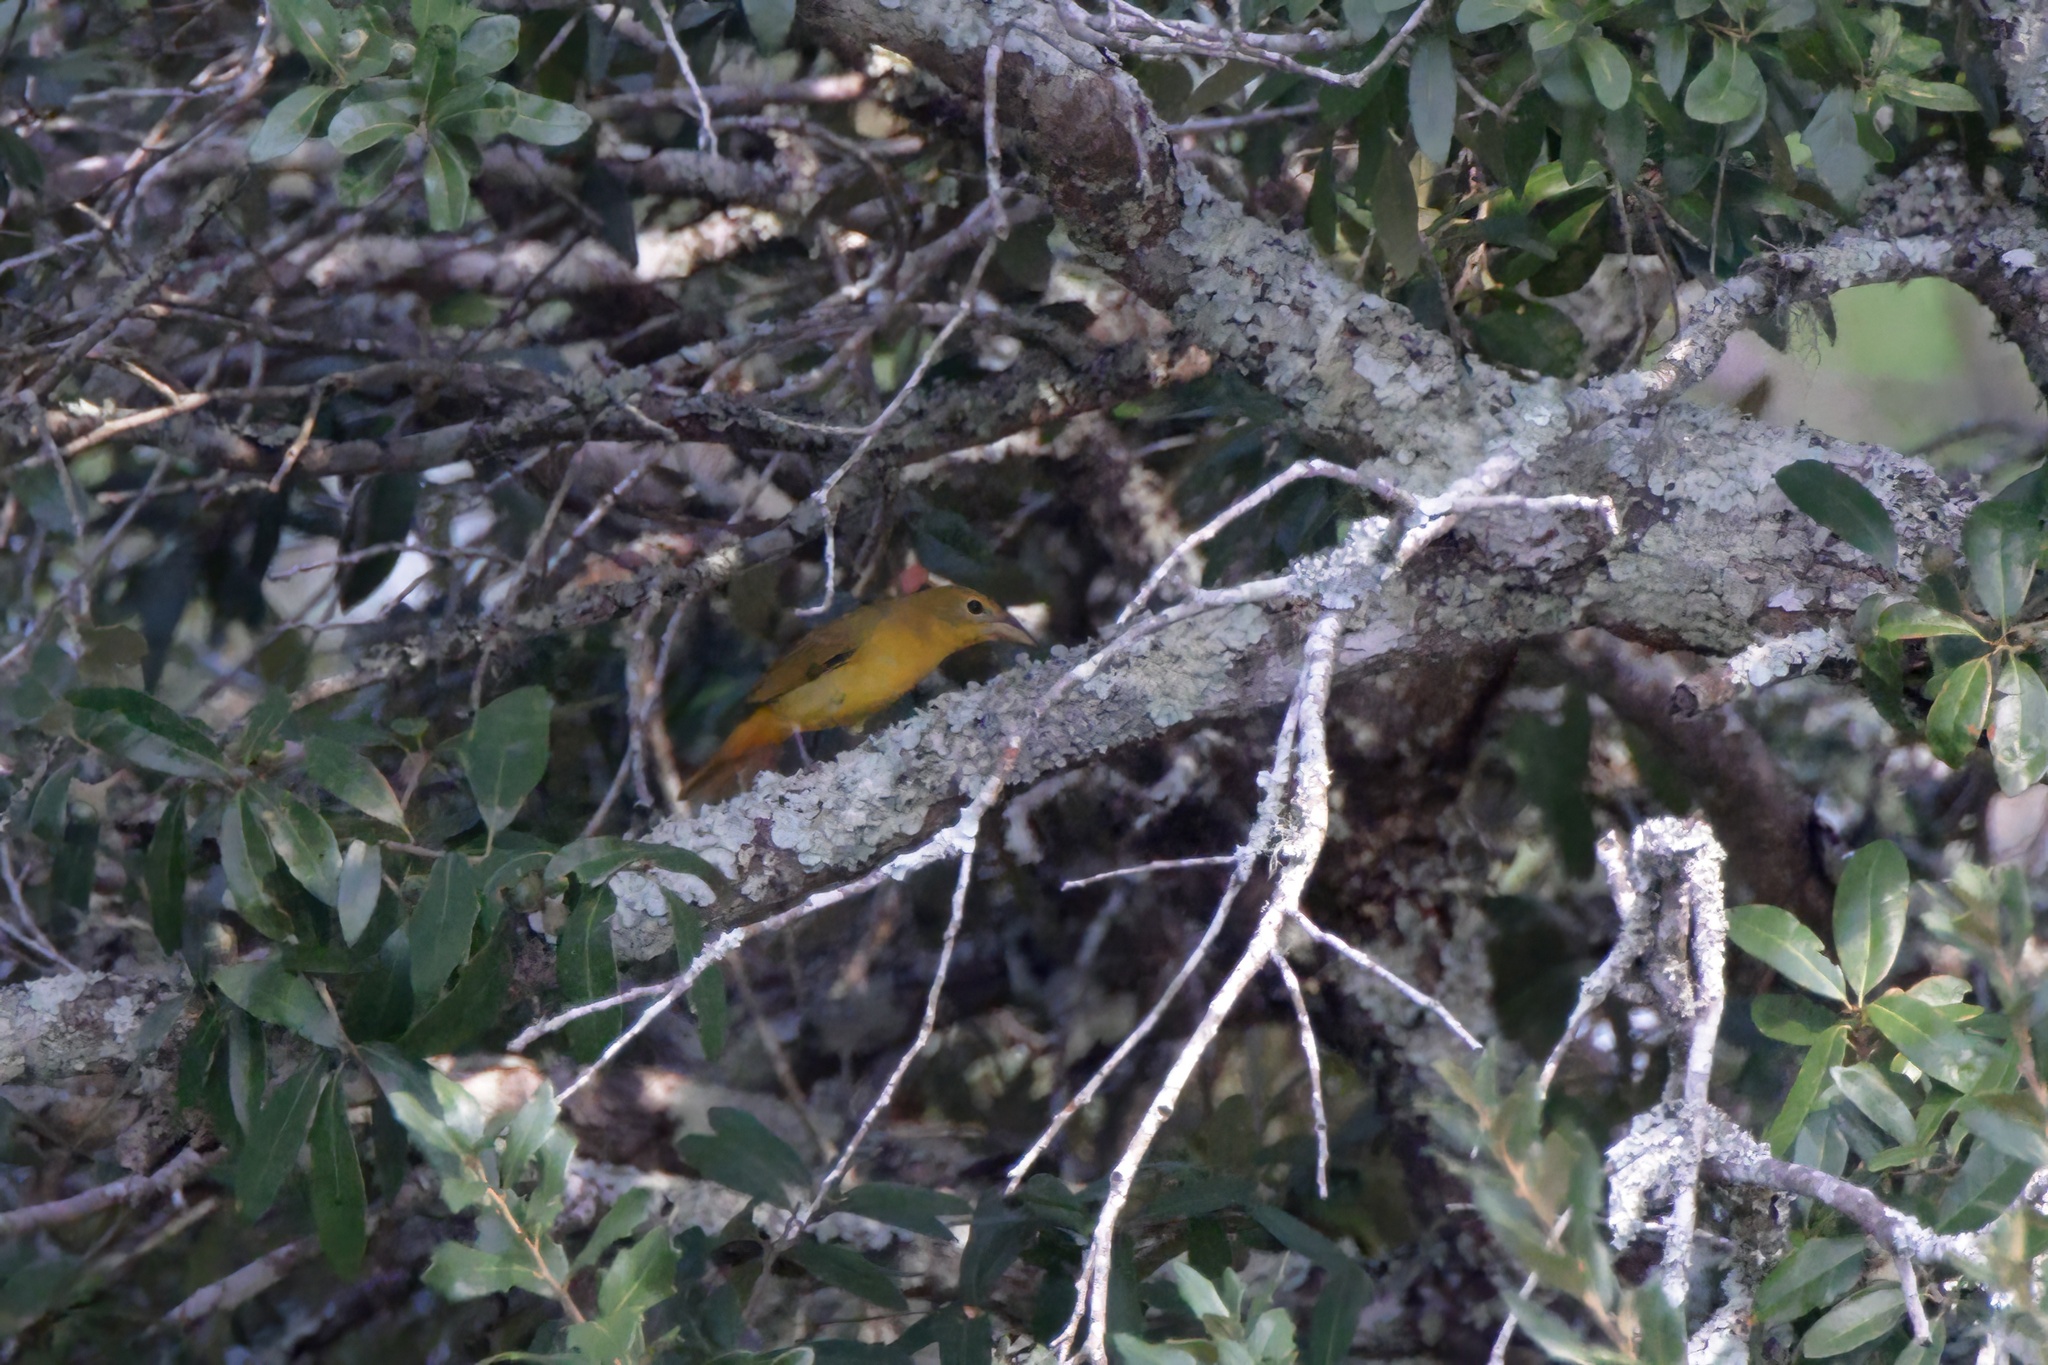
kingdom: Animalia
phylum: Chordata
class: Aves
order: Passeriformes
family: Cardinalidae
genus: Piranga
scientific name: Piranga rubra
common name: Summer tanager
